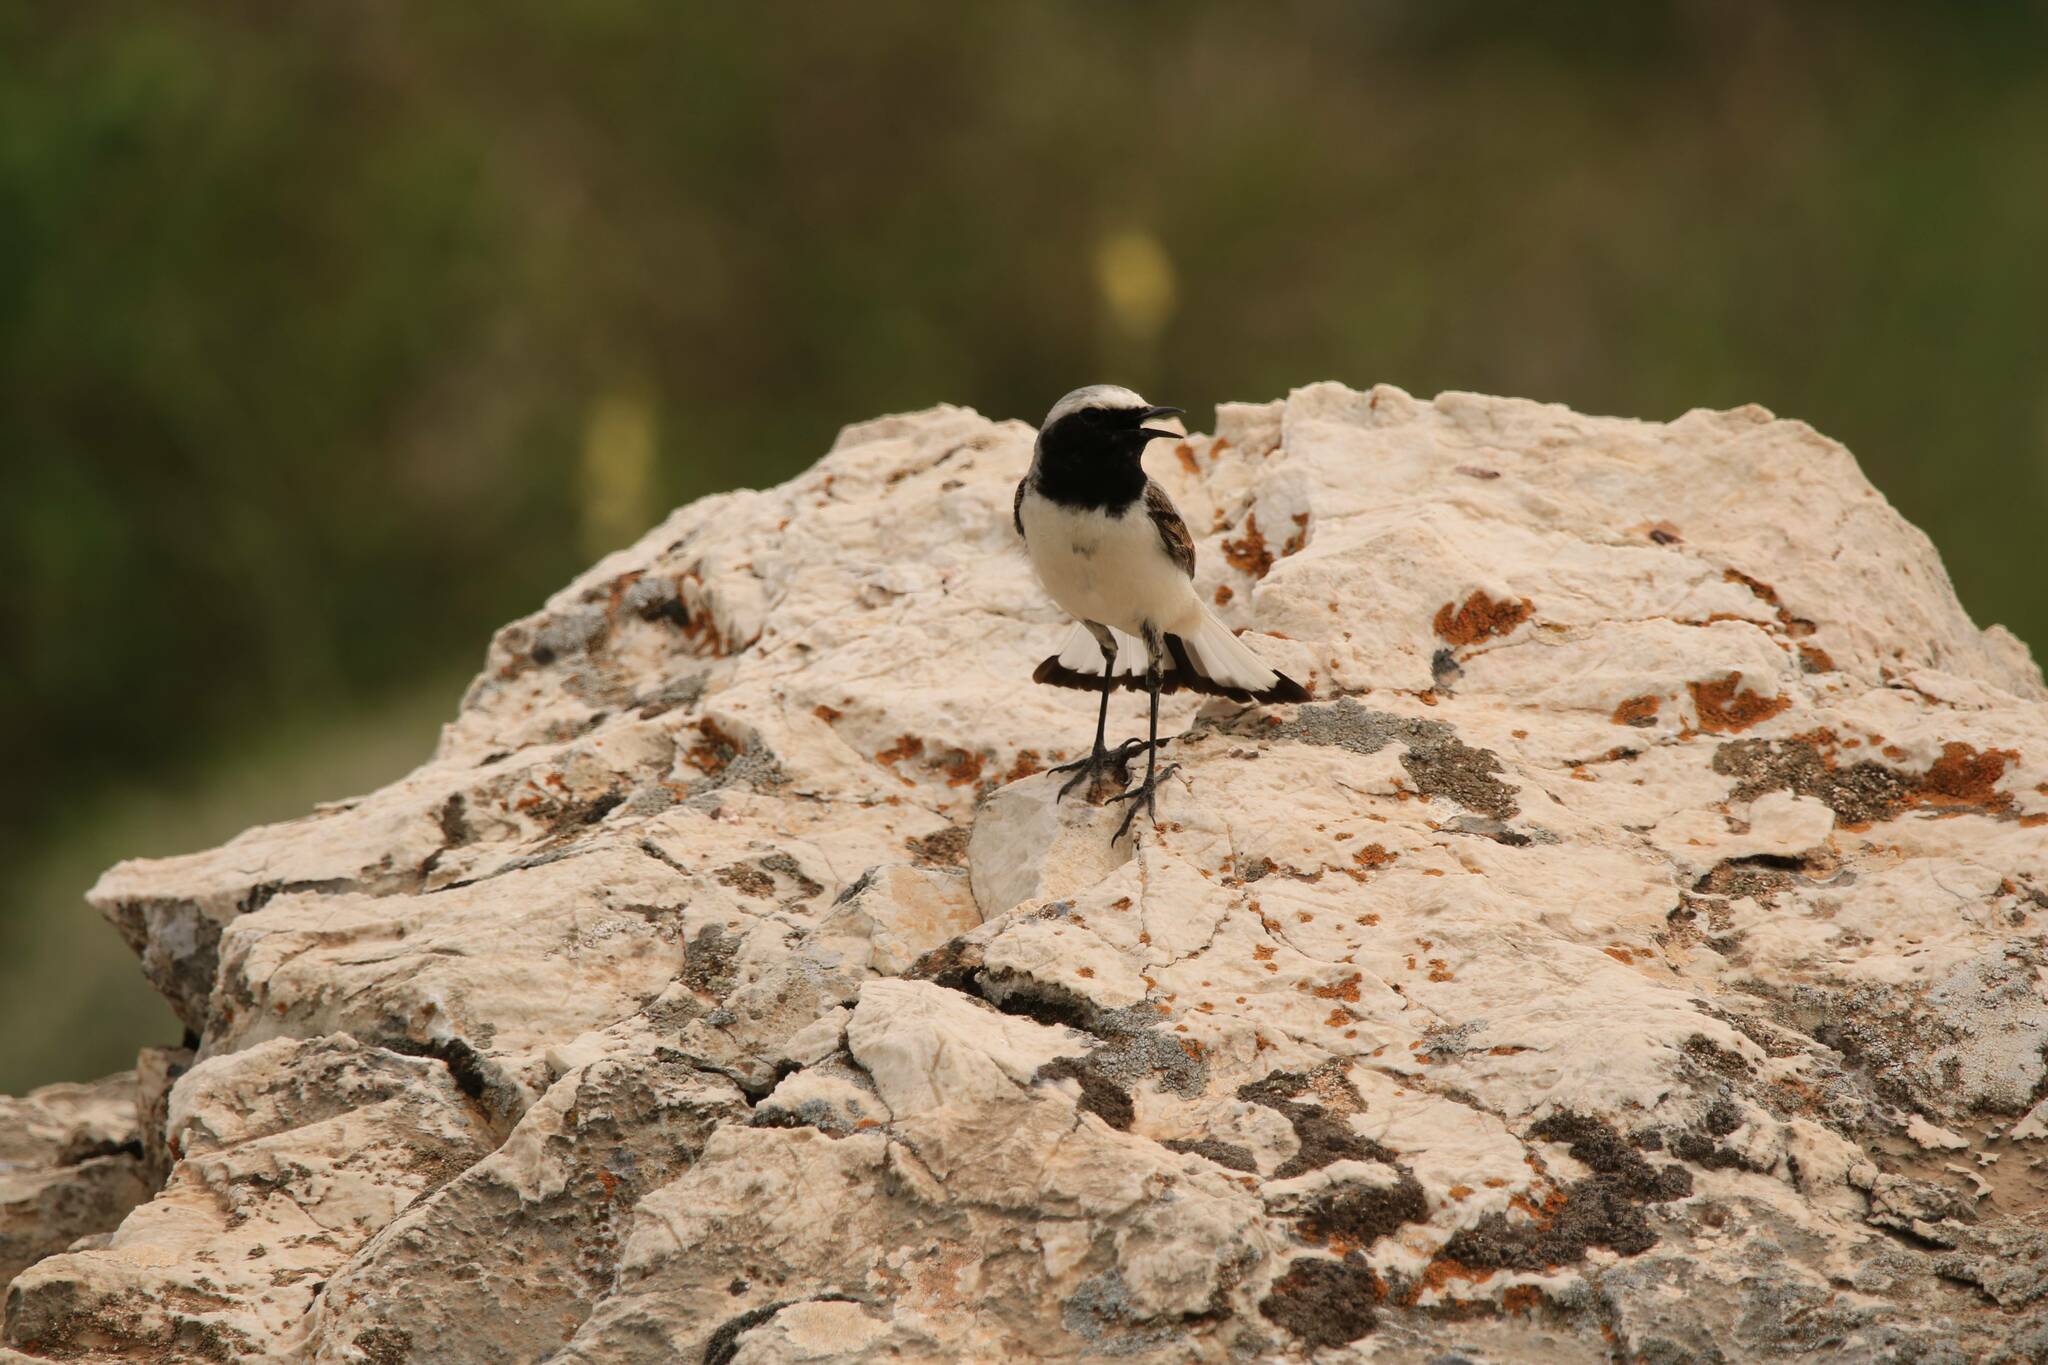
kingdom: Animalia
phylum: Chordata
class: Aves
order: Passeriformes
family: Muscicapidae
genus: Oenanthe
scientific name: Oenanthe oenanthe
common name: Northern wheatear
